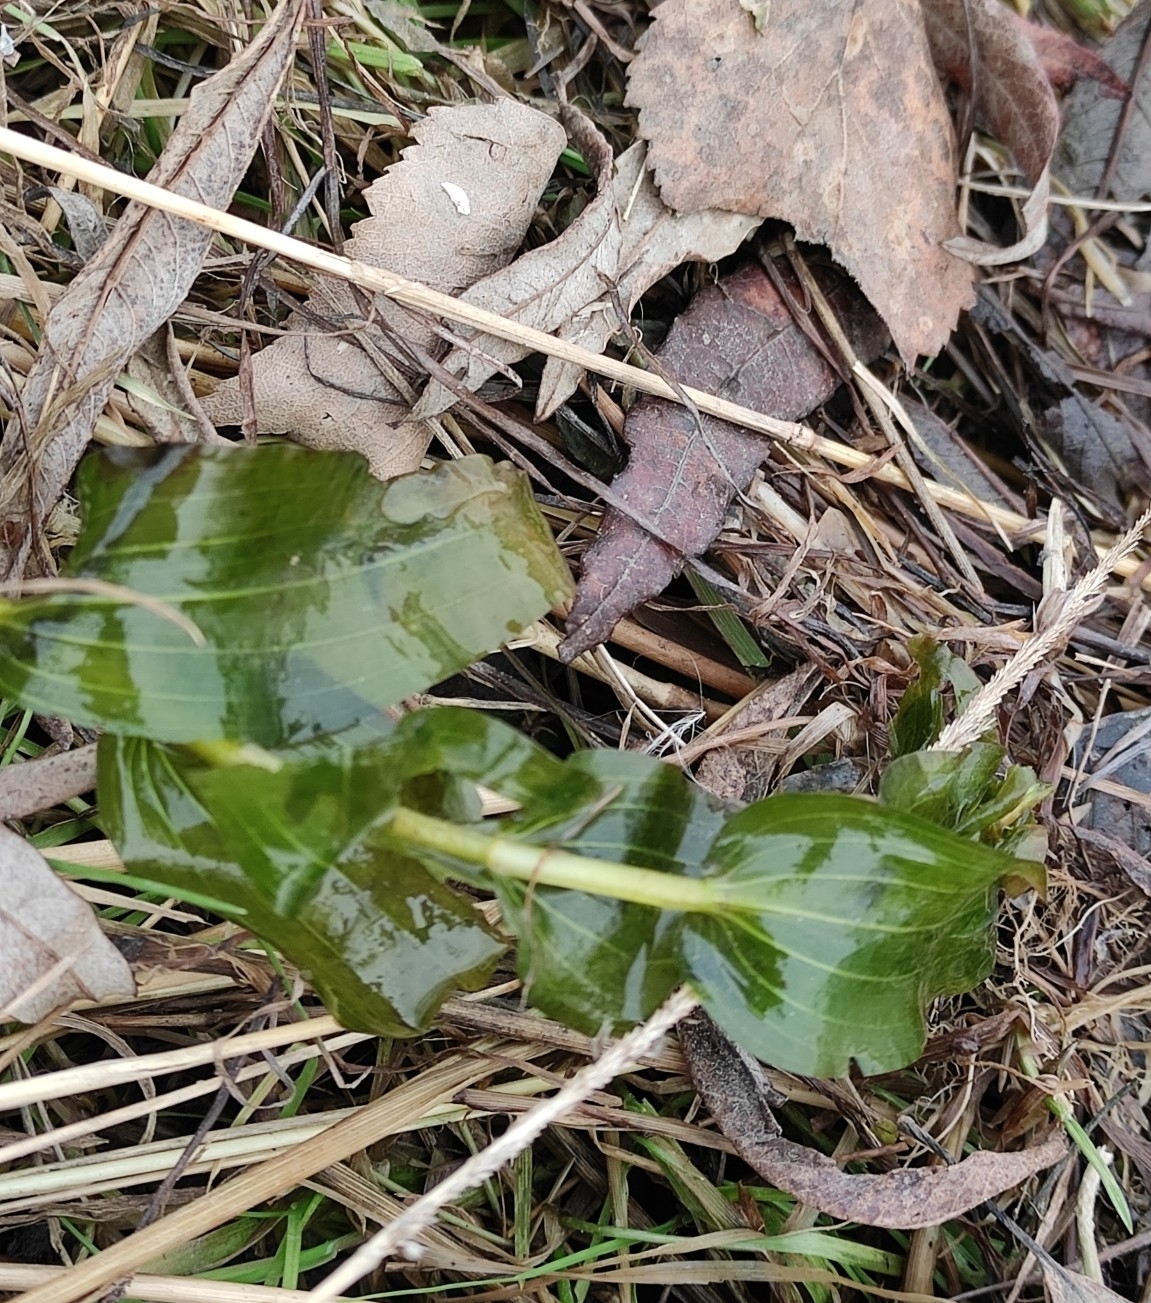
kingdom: Plantae
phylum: Tracheophyta
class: Liliopsida
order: Alismatales
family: Potamogetonaceae
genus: Potamogeton
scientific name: Potamogeton perfoliatus
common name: Perfoliate pondweed
